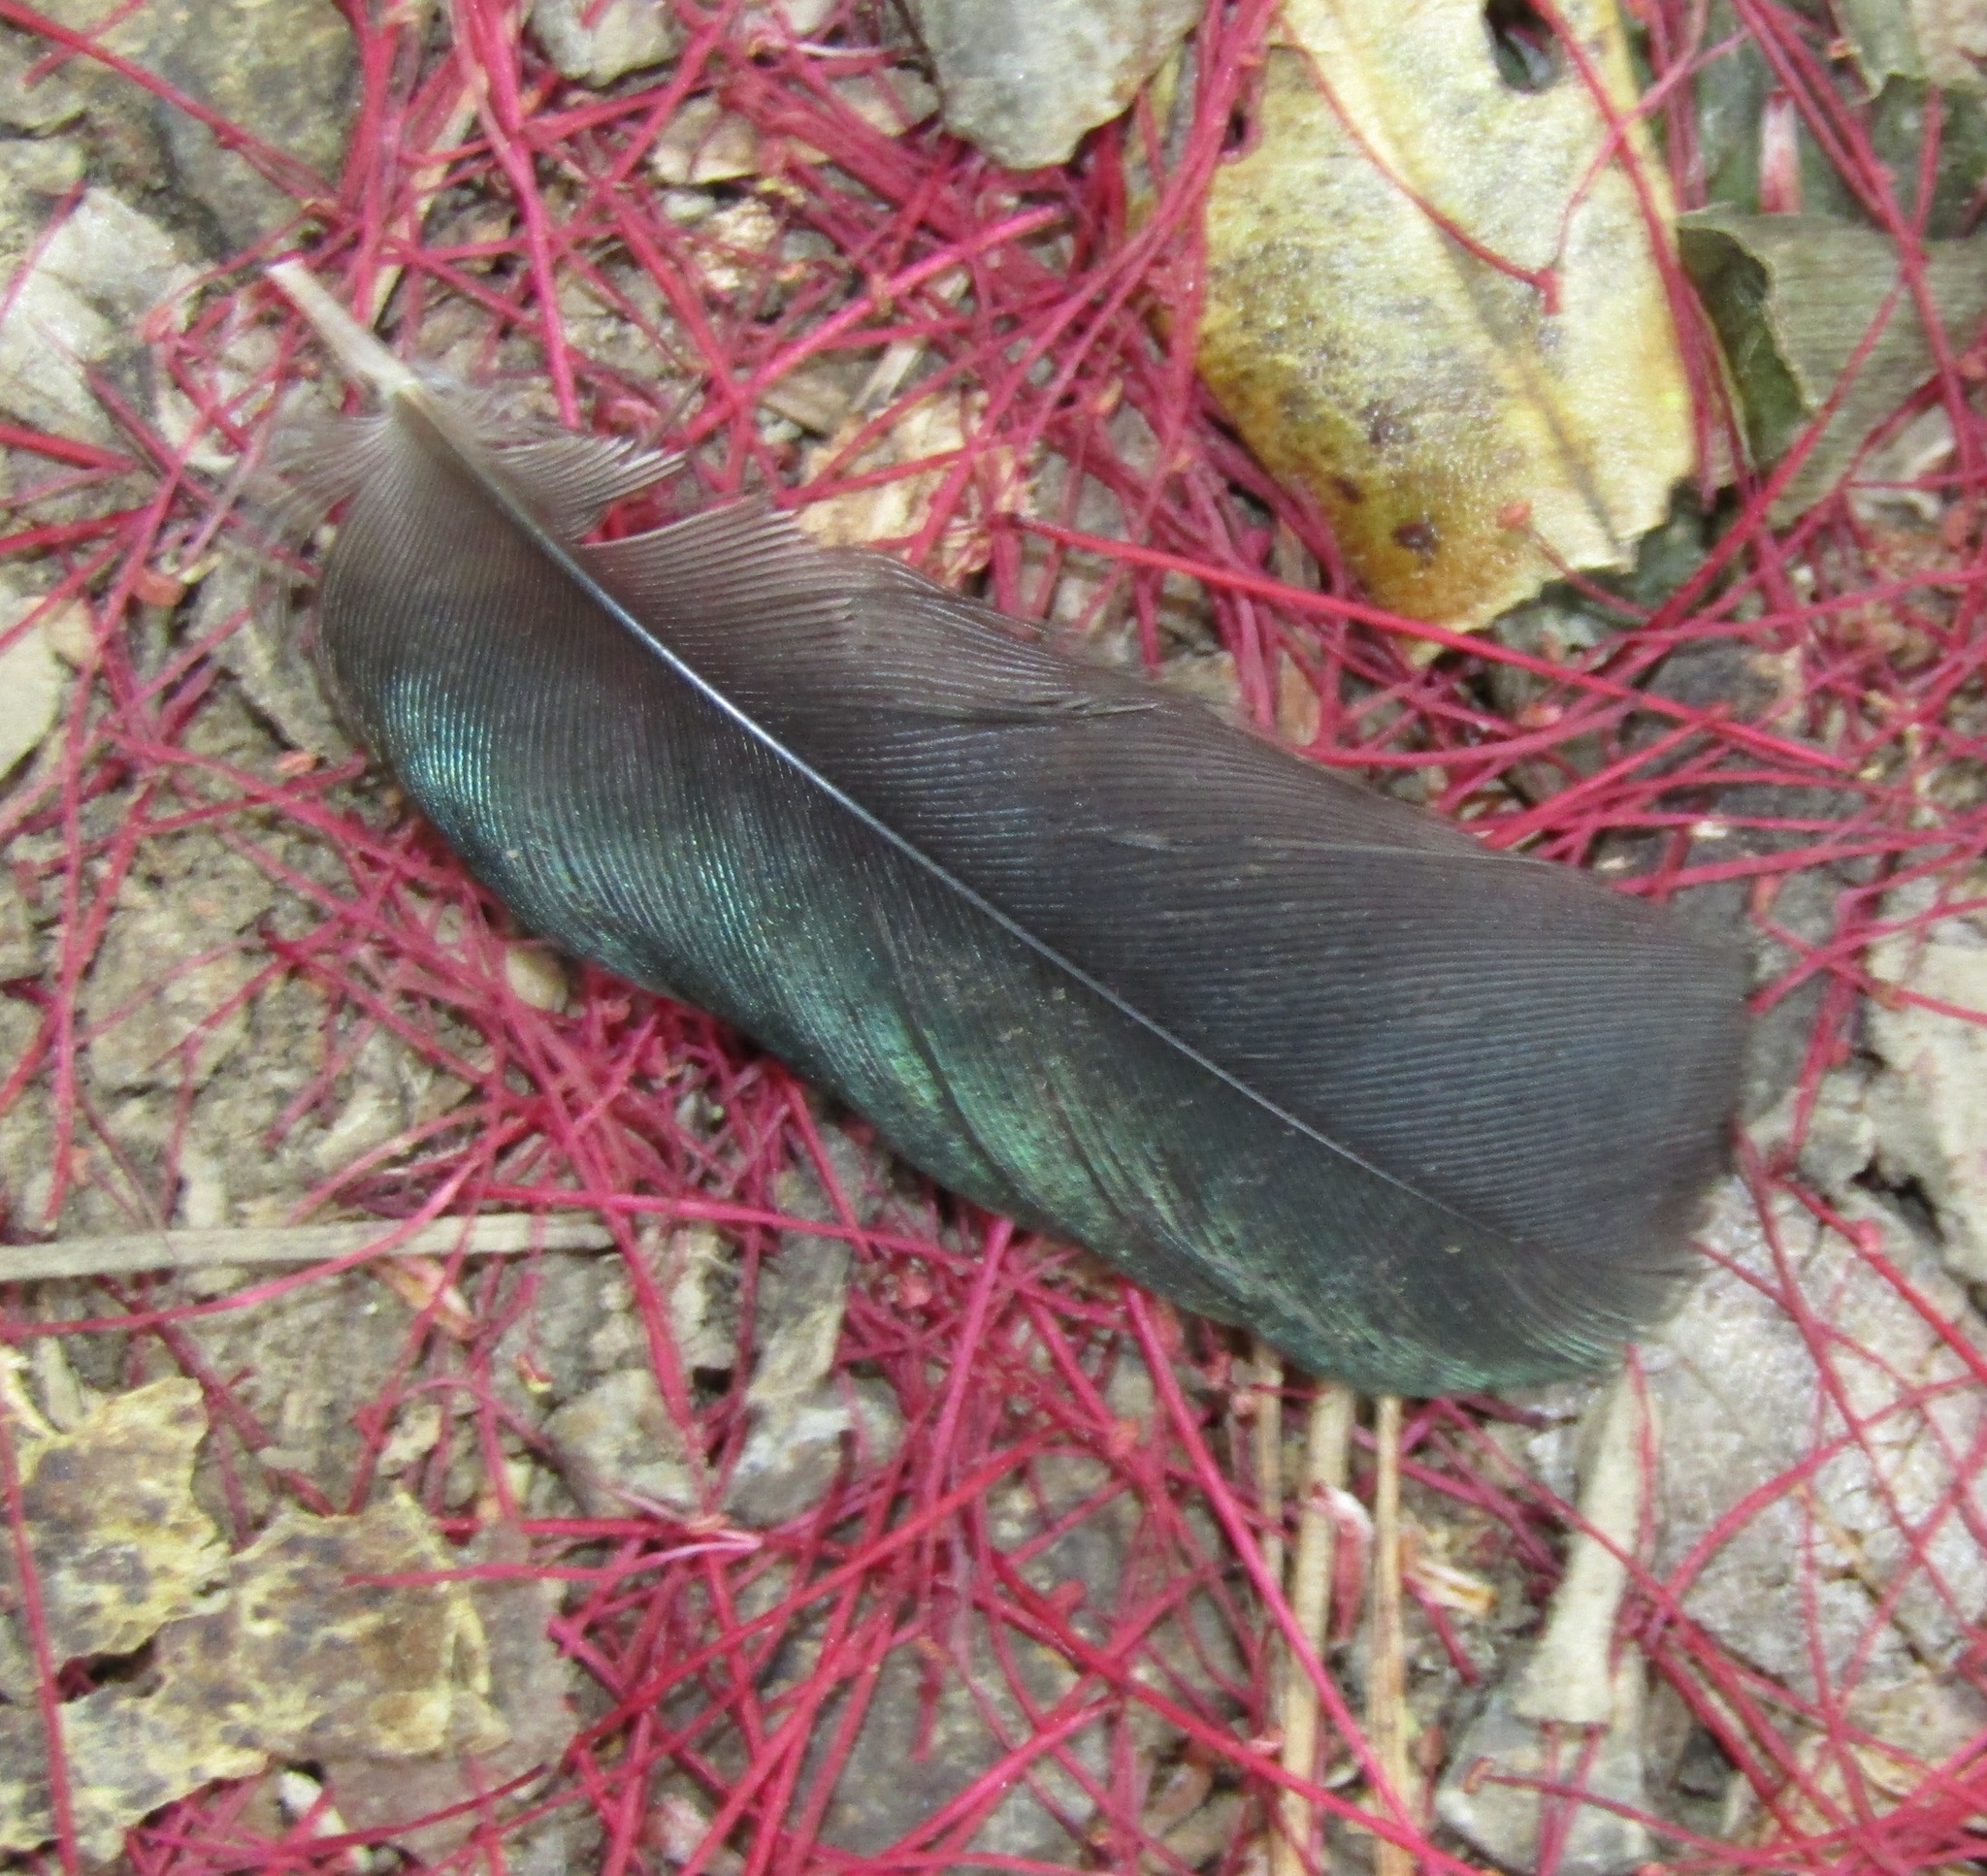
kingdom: Animalia
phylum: Chordata
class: Aves
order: Passeriformes
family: Meliphagidae
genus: Prosthemadera
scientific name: Prosthemadera novaeseelandiae
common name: Tui
